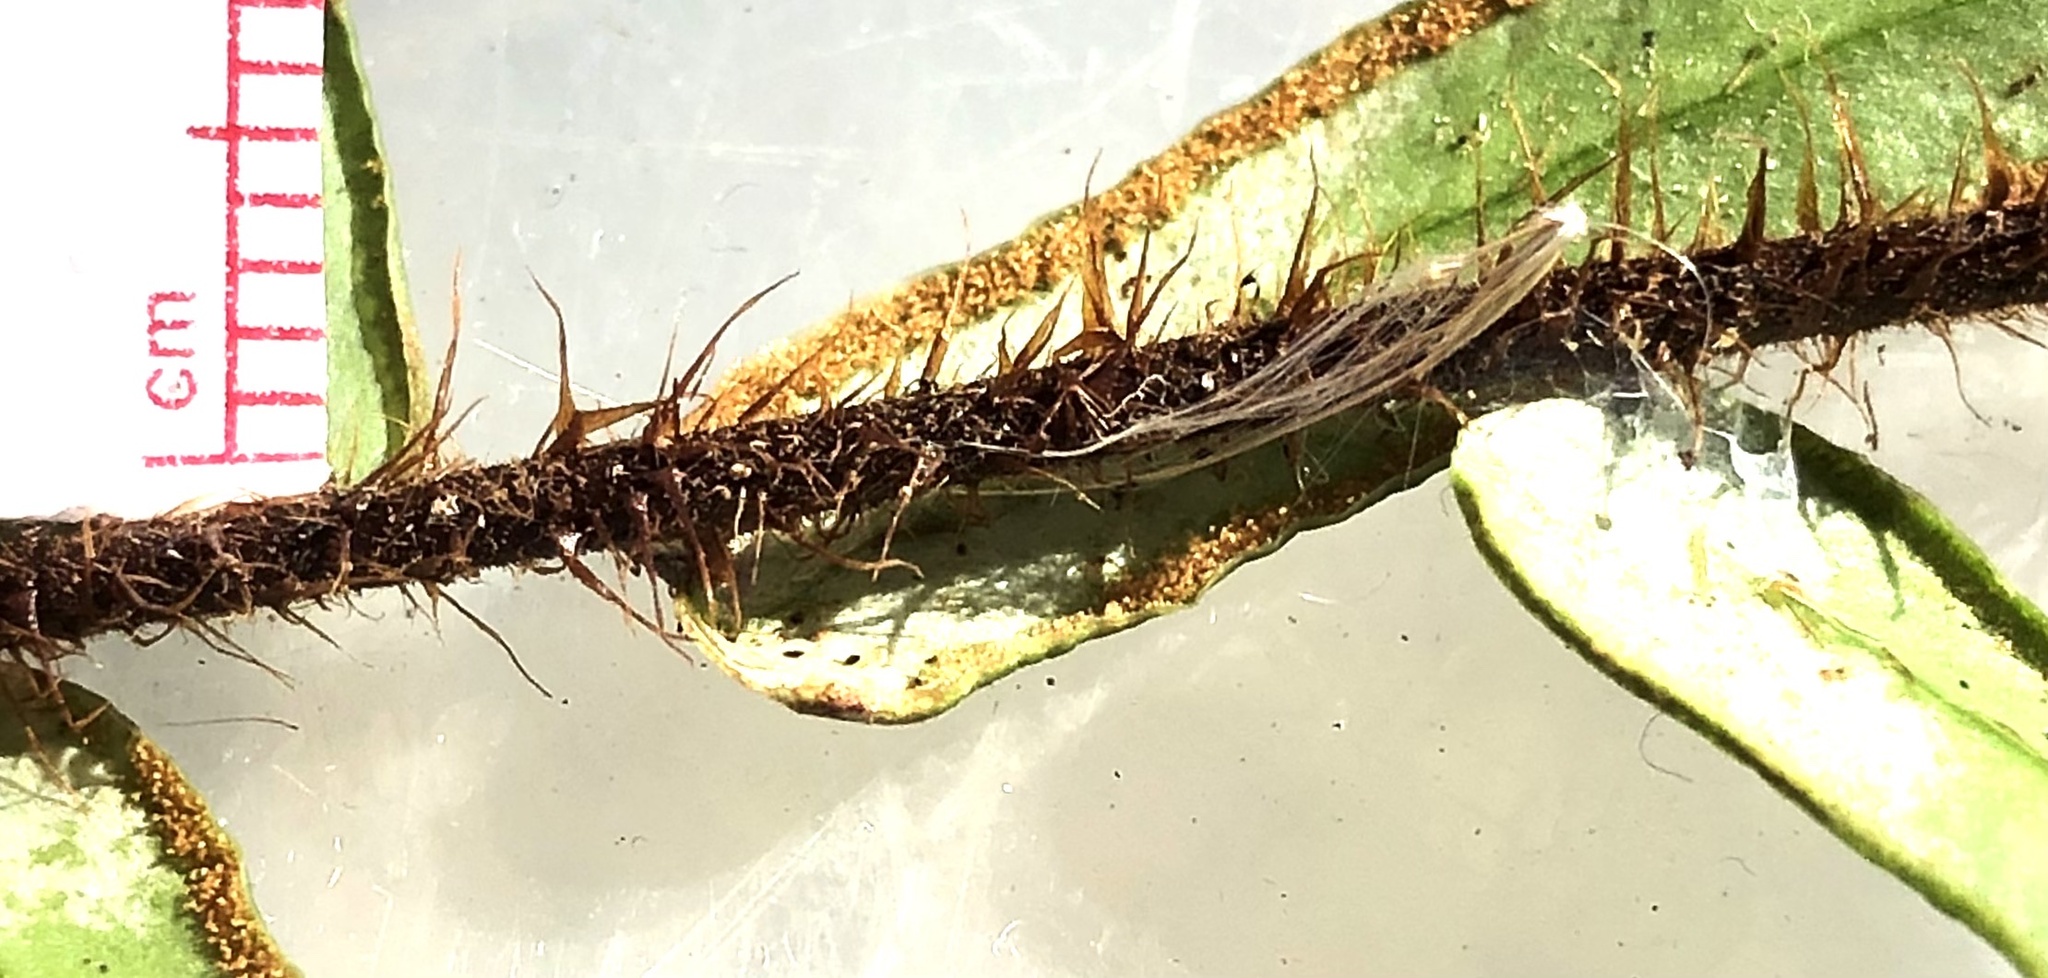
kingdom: Plantae
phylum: Tracheophyta
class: Polypodiopsida
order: Polypodiales
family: Pteridaceae
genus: Pellaea
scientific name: Pellaea falcata
